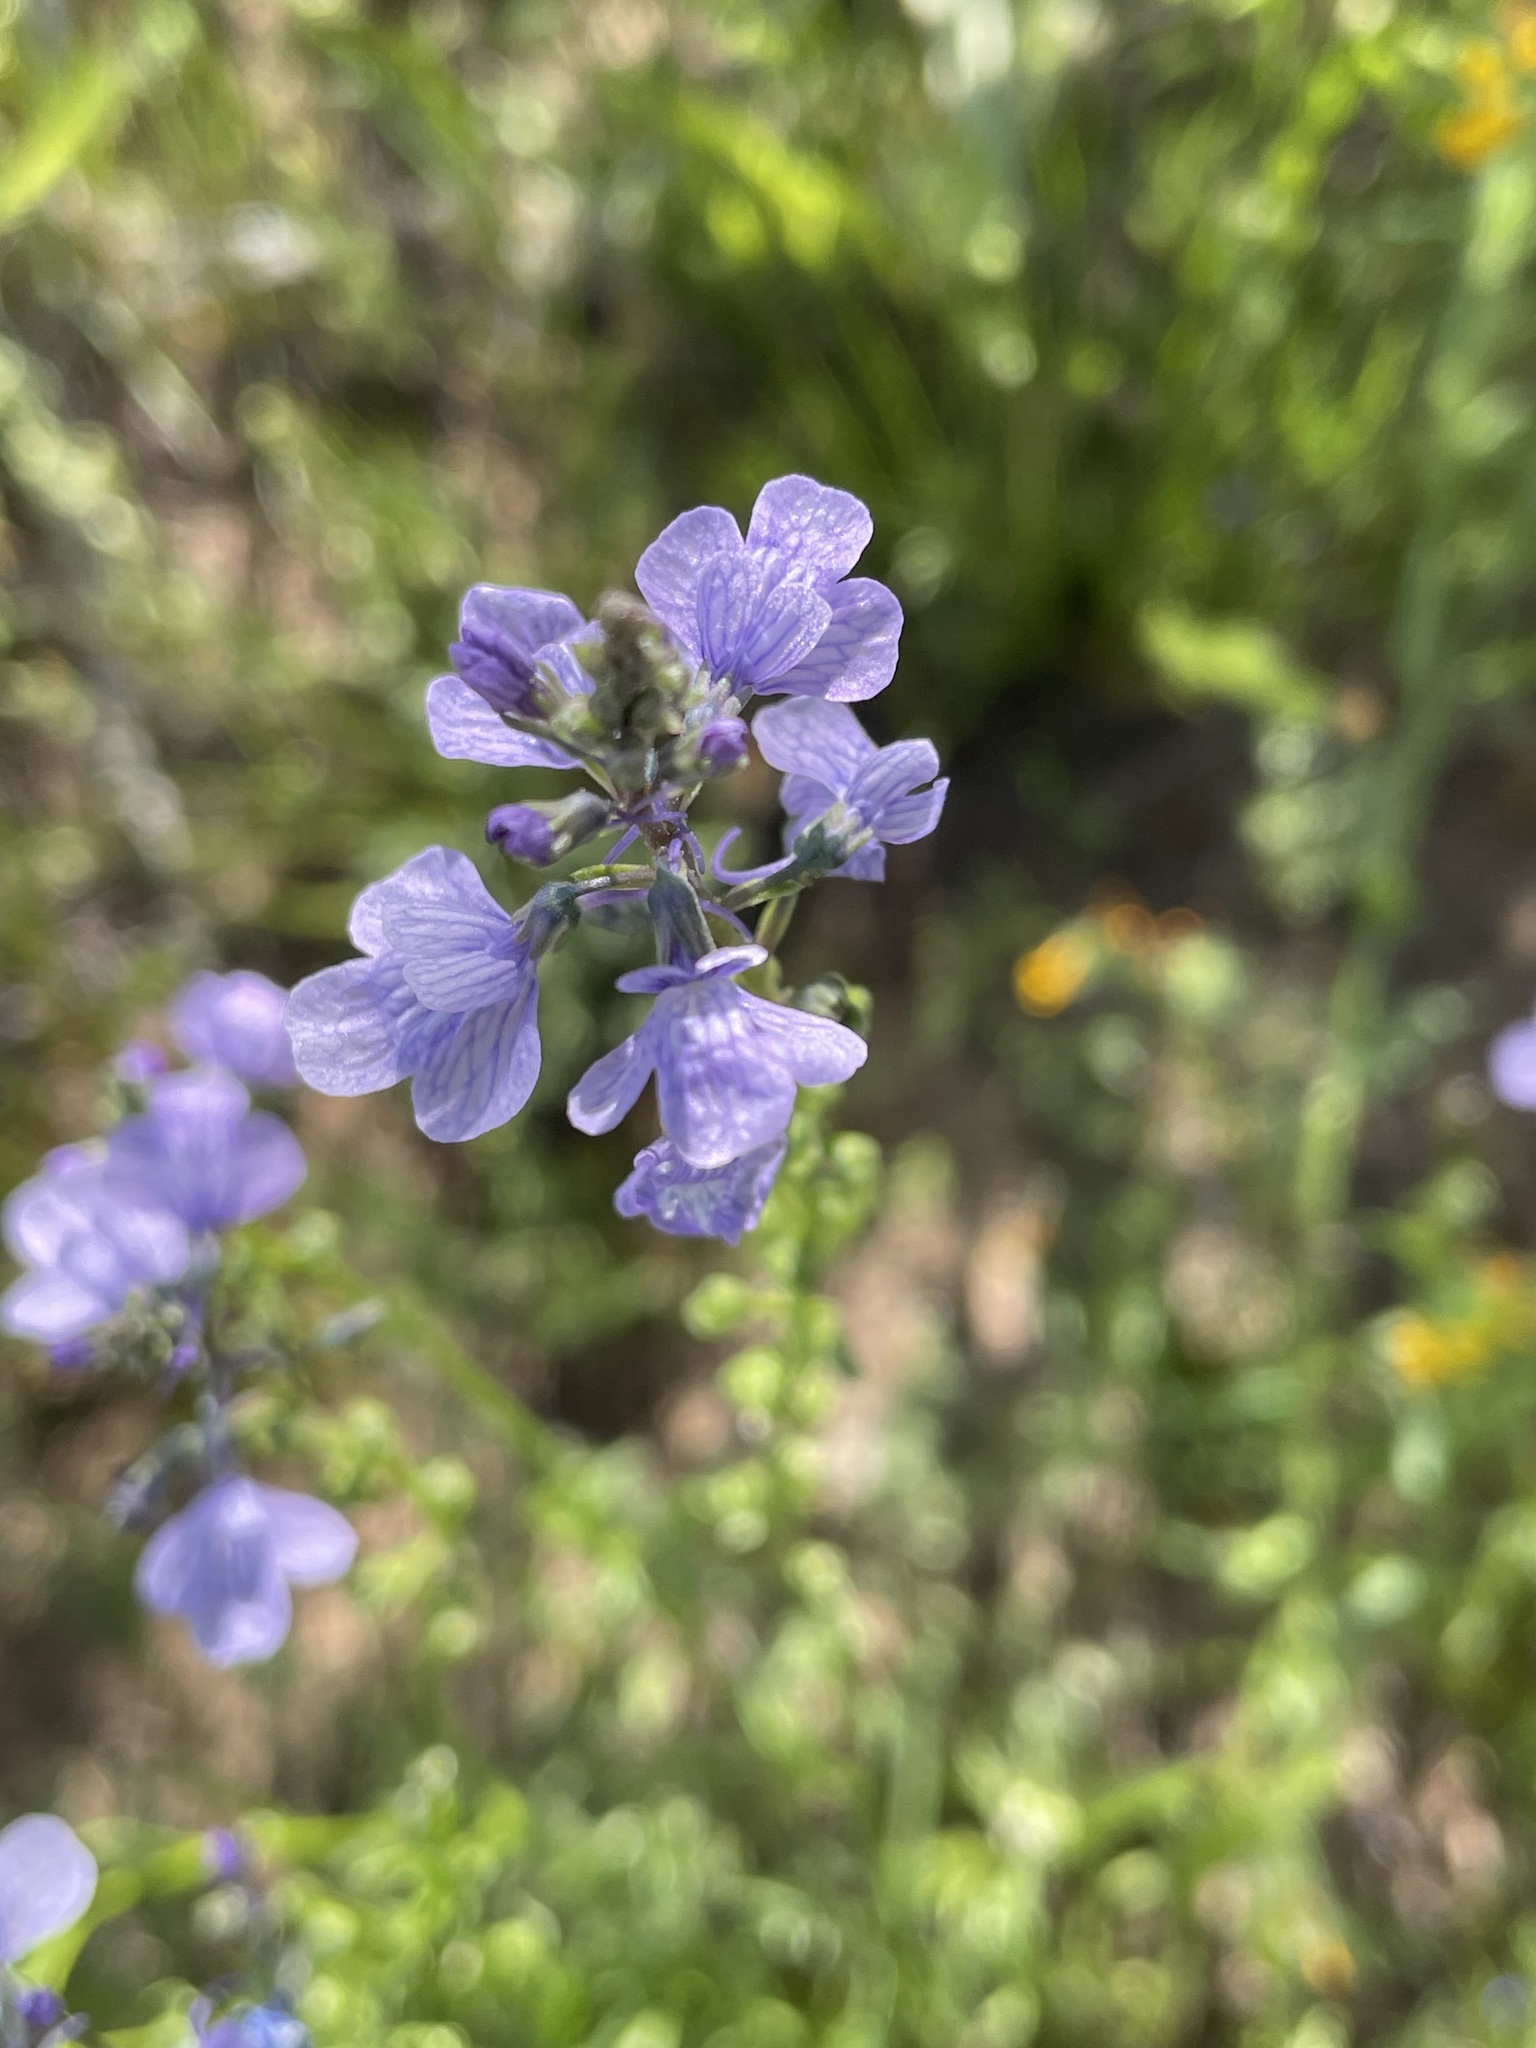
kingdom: Plantae
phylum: Tracheophyta
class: Magnoliopsida
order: Lamiales
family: Plantaginaceae
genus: Nuttallanthus
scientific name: Nuttallanthus texanus
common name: Texas toadflax
